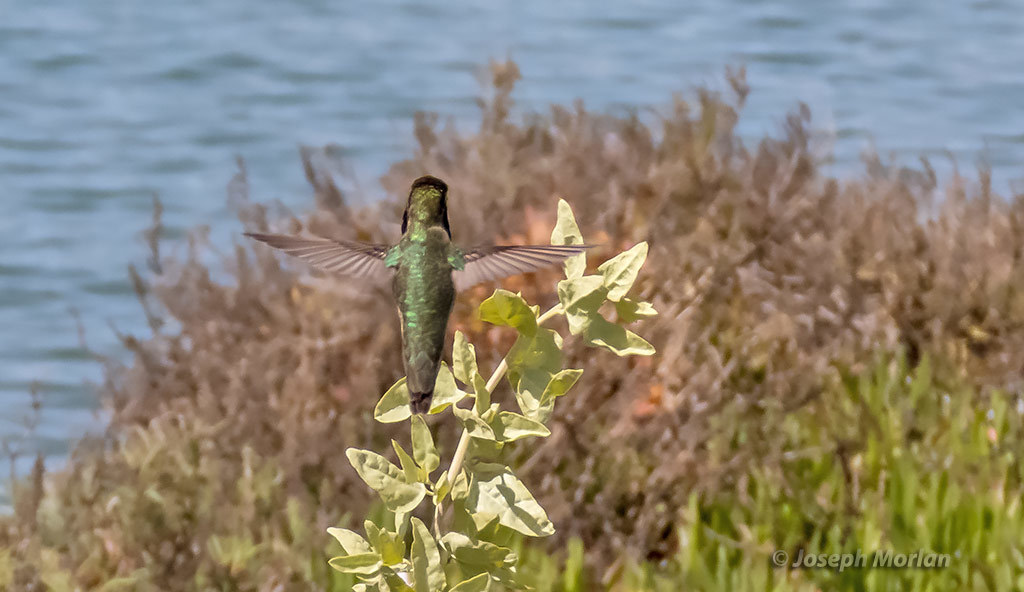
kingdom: Animalia
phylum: Chordata
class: Aves
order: Apodiformes
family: Trochilidae
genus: Calypte
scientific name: Calypte anna
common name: Anna's hummingbird
